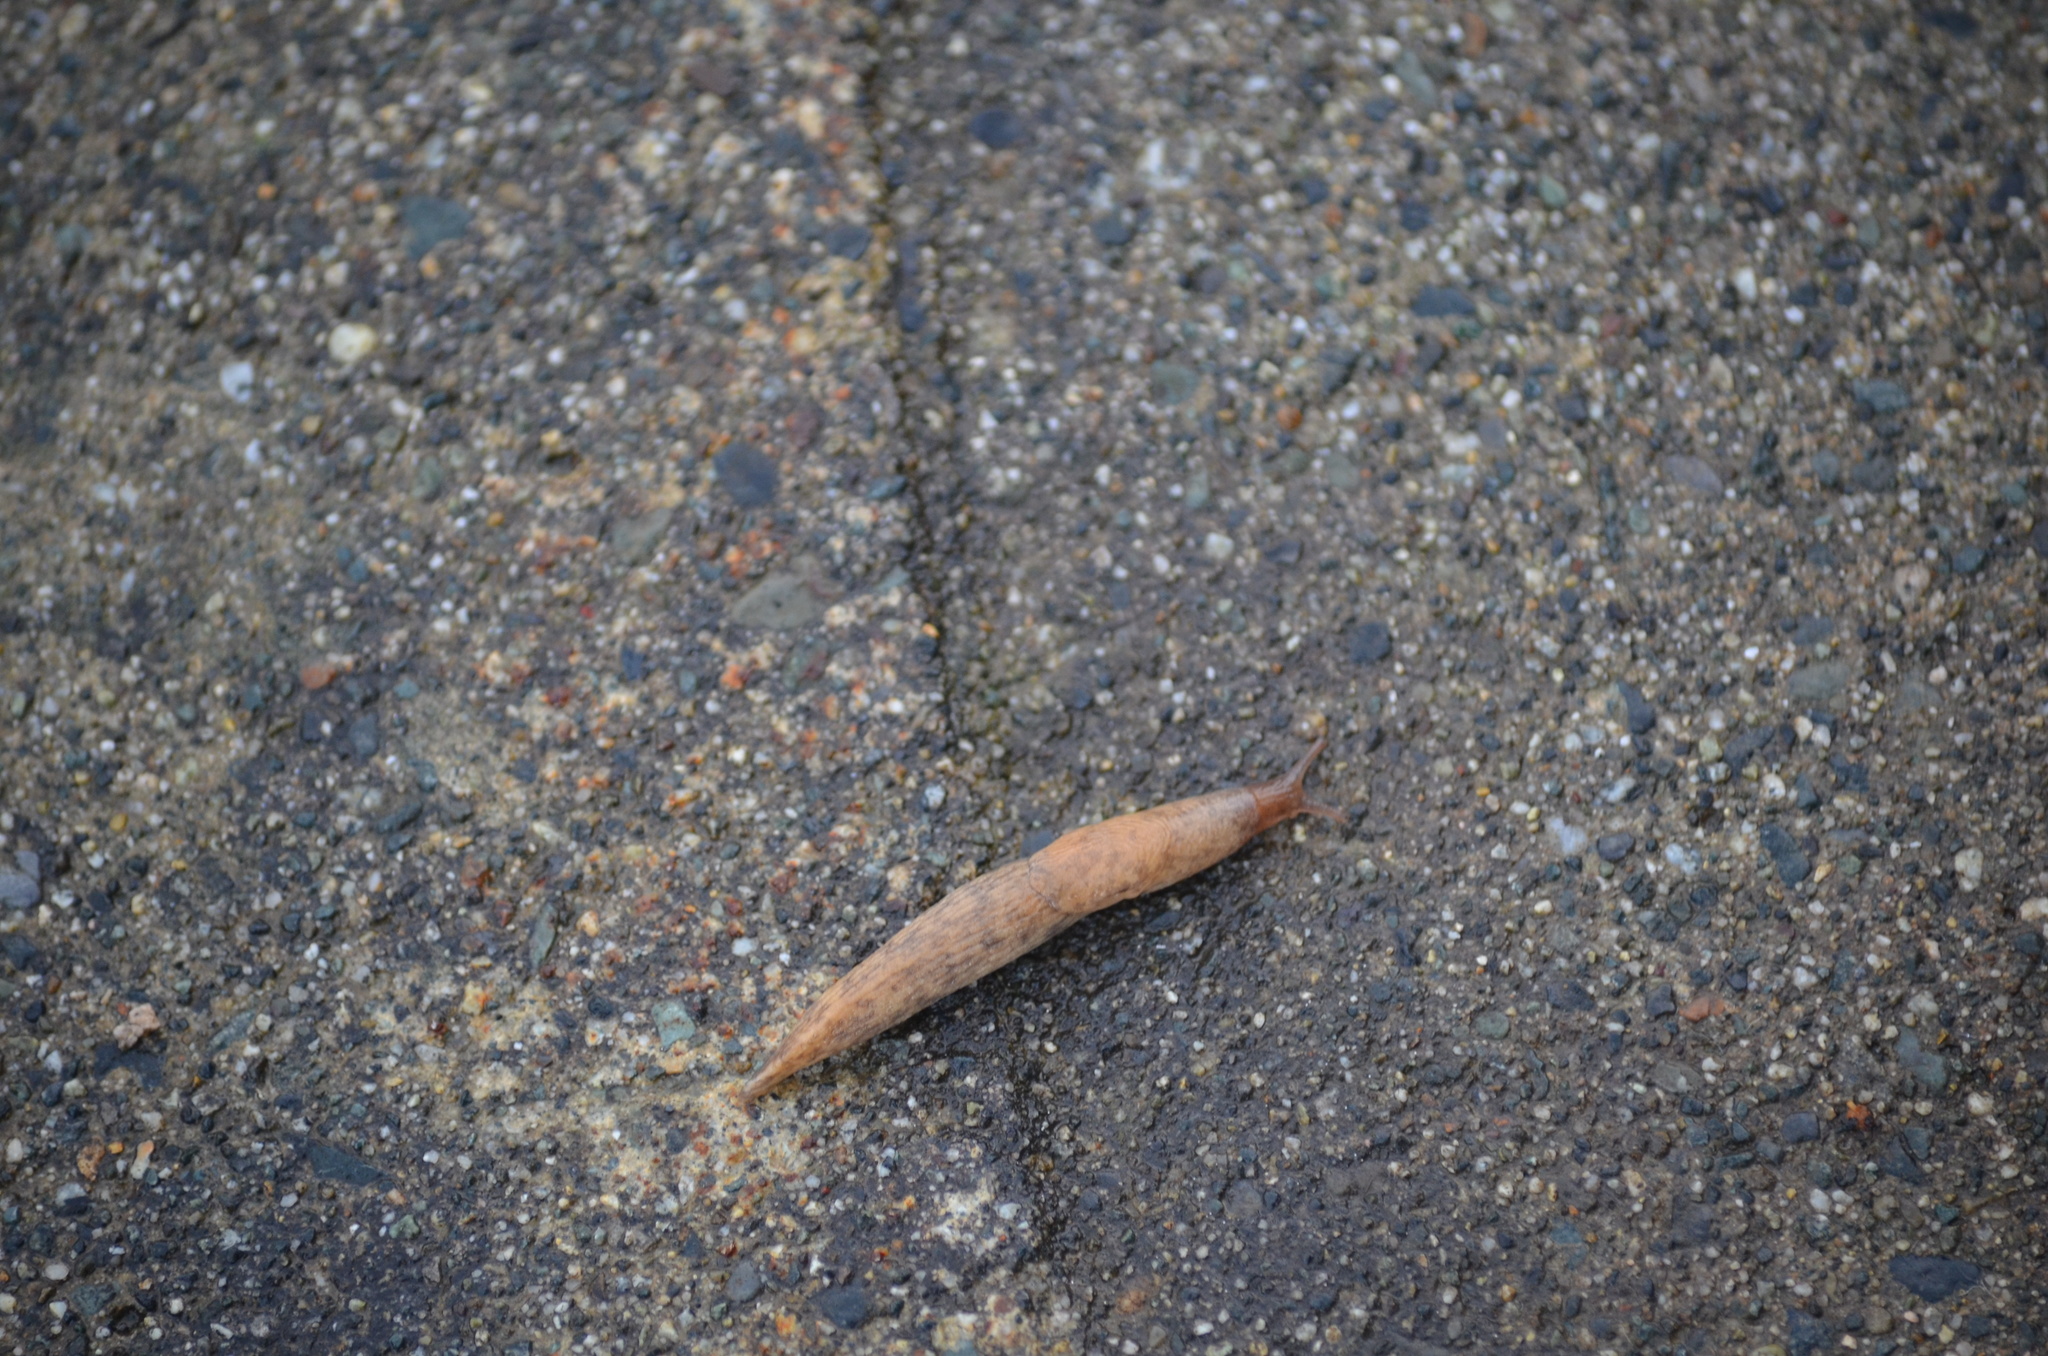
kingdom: Animalia
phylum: Mollusca
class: Gastropoda
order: Stylommatophora
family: Agriolimacidae
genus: Deroceras
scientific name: Deroceras reticulatum
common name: Gray field slug
